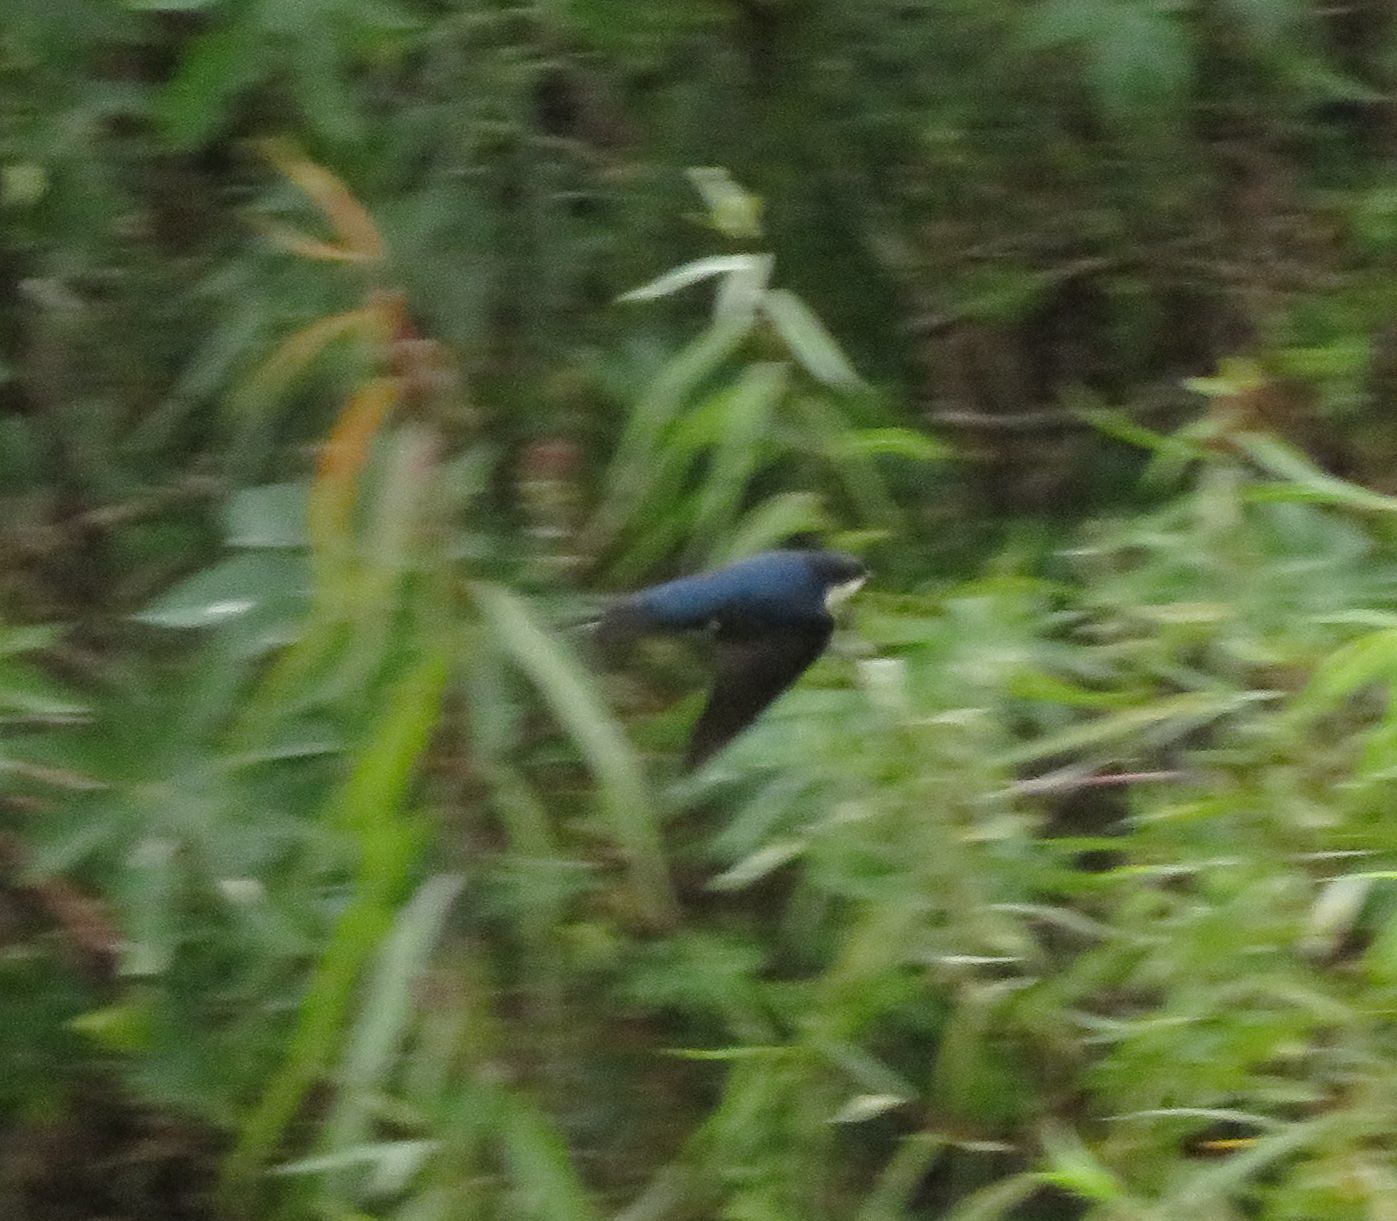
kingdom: Animalia
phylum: Chordata
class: Aves
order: Passeriformes
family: Hirundinidae
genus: Notiochelidon
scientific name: Notiochelidon cyanoleuca
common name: Blue-and-white swallow
